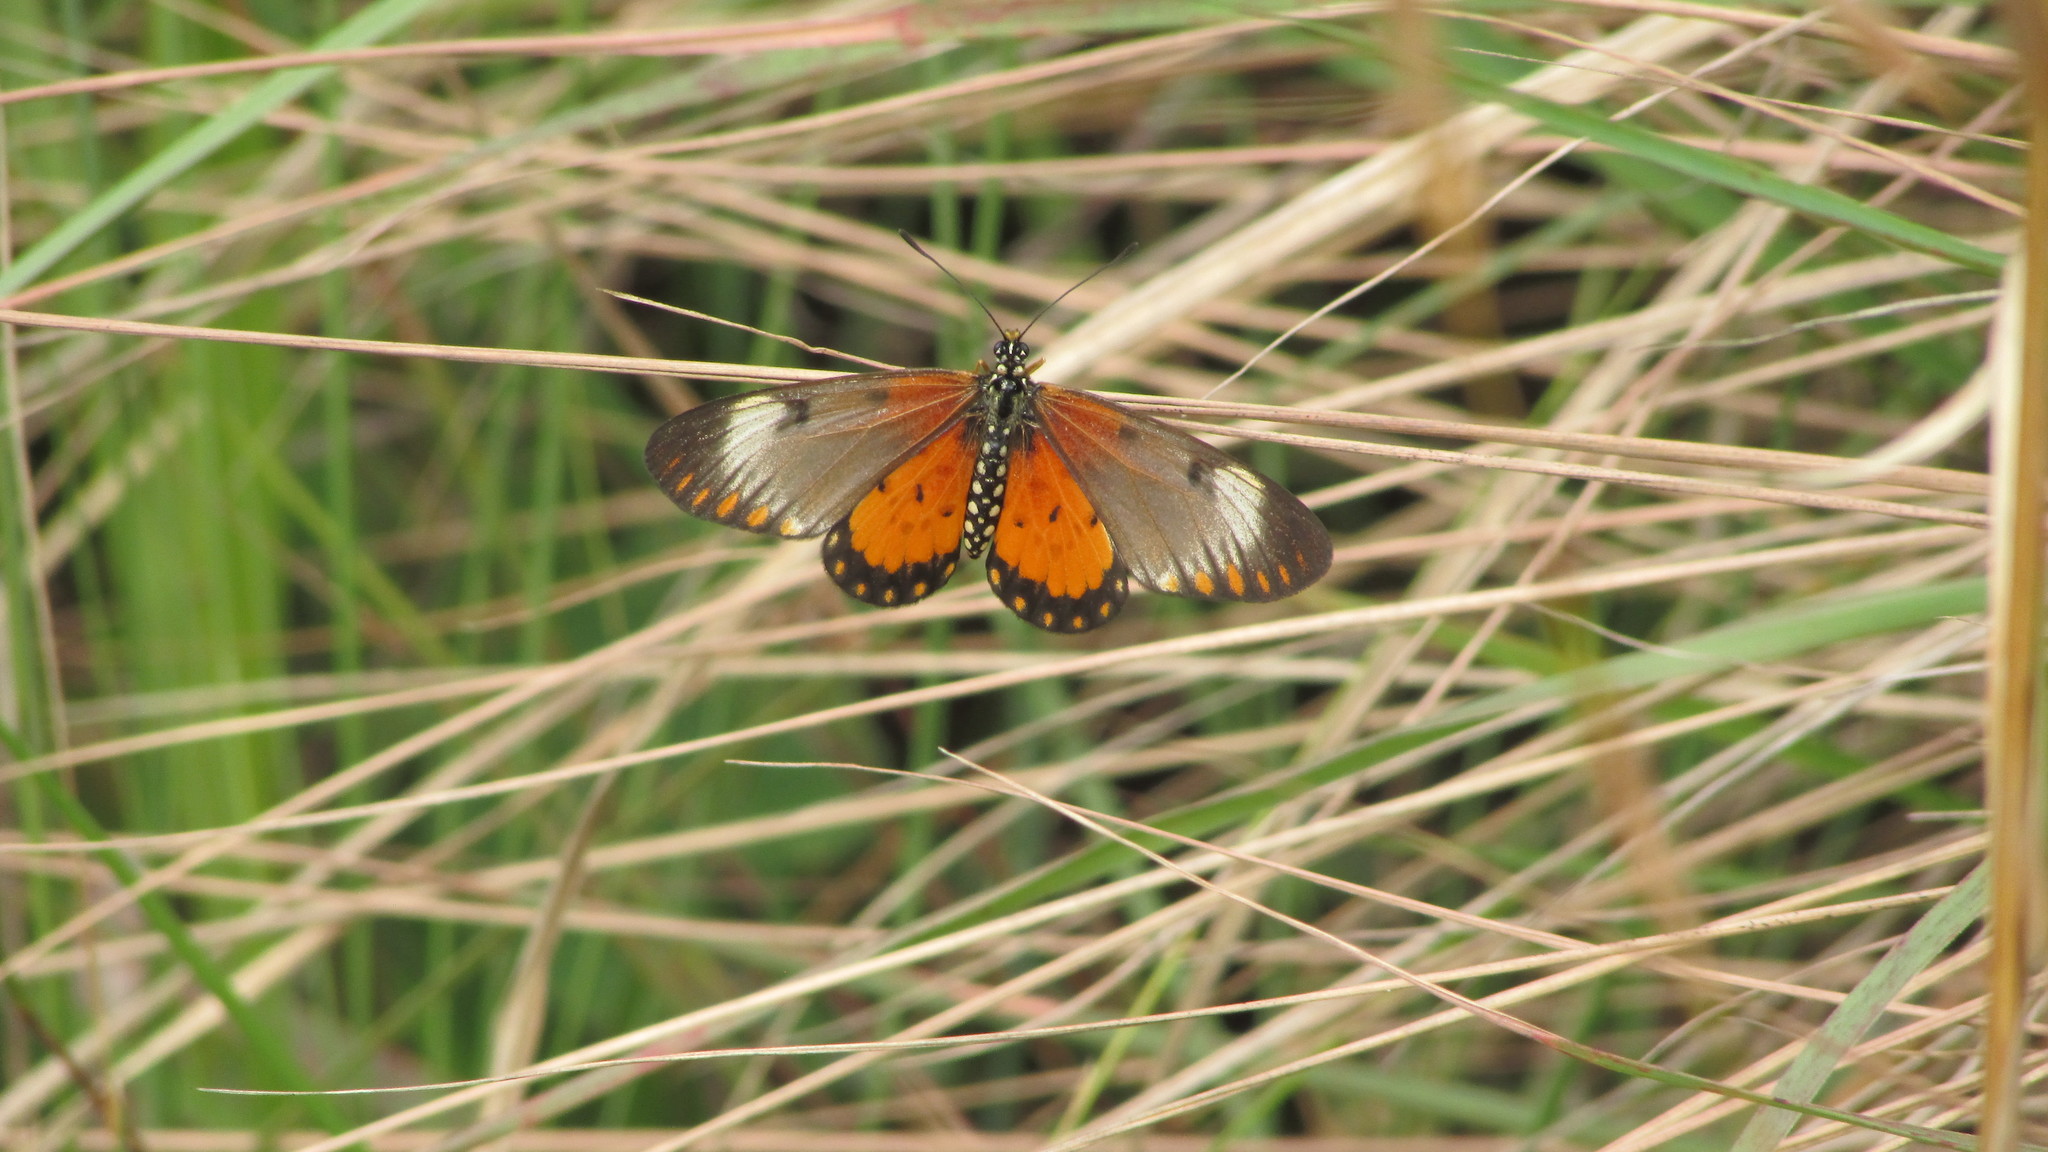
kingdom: Animalia
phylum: Arthropoda
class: Insecta
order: Lepidoptera
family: Nymphalidae
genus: Acraea
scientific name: Acraea Telchinia serena
